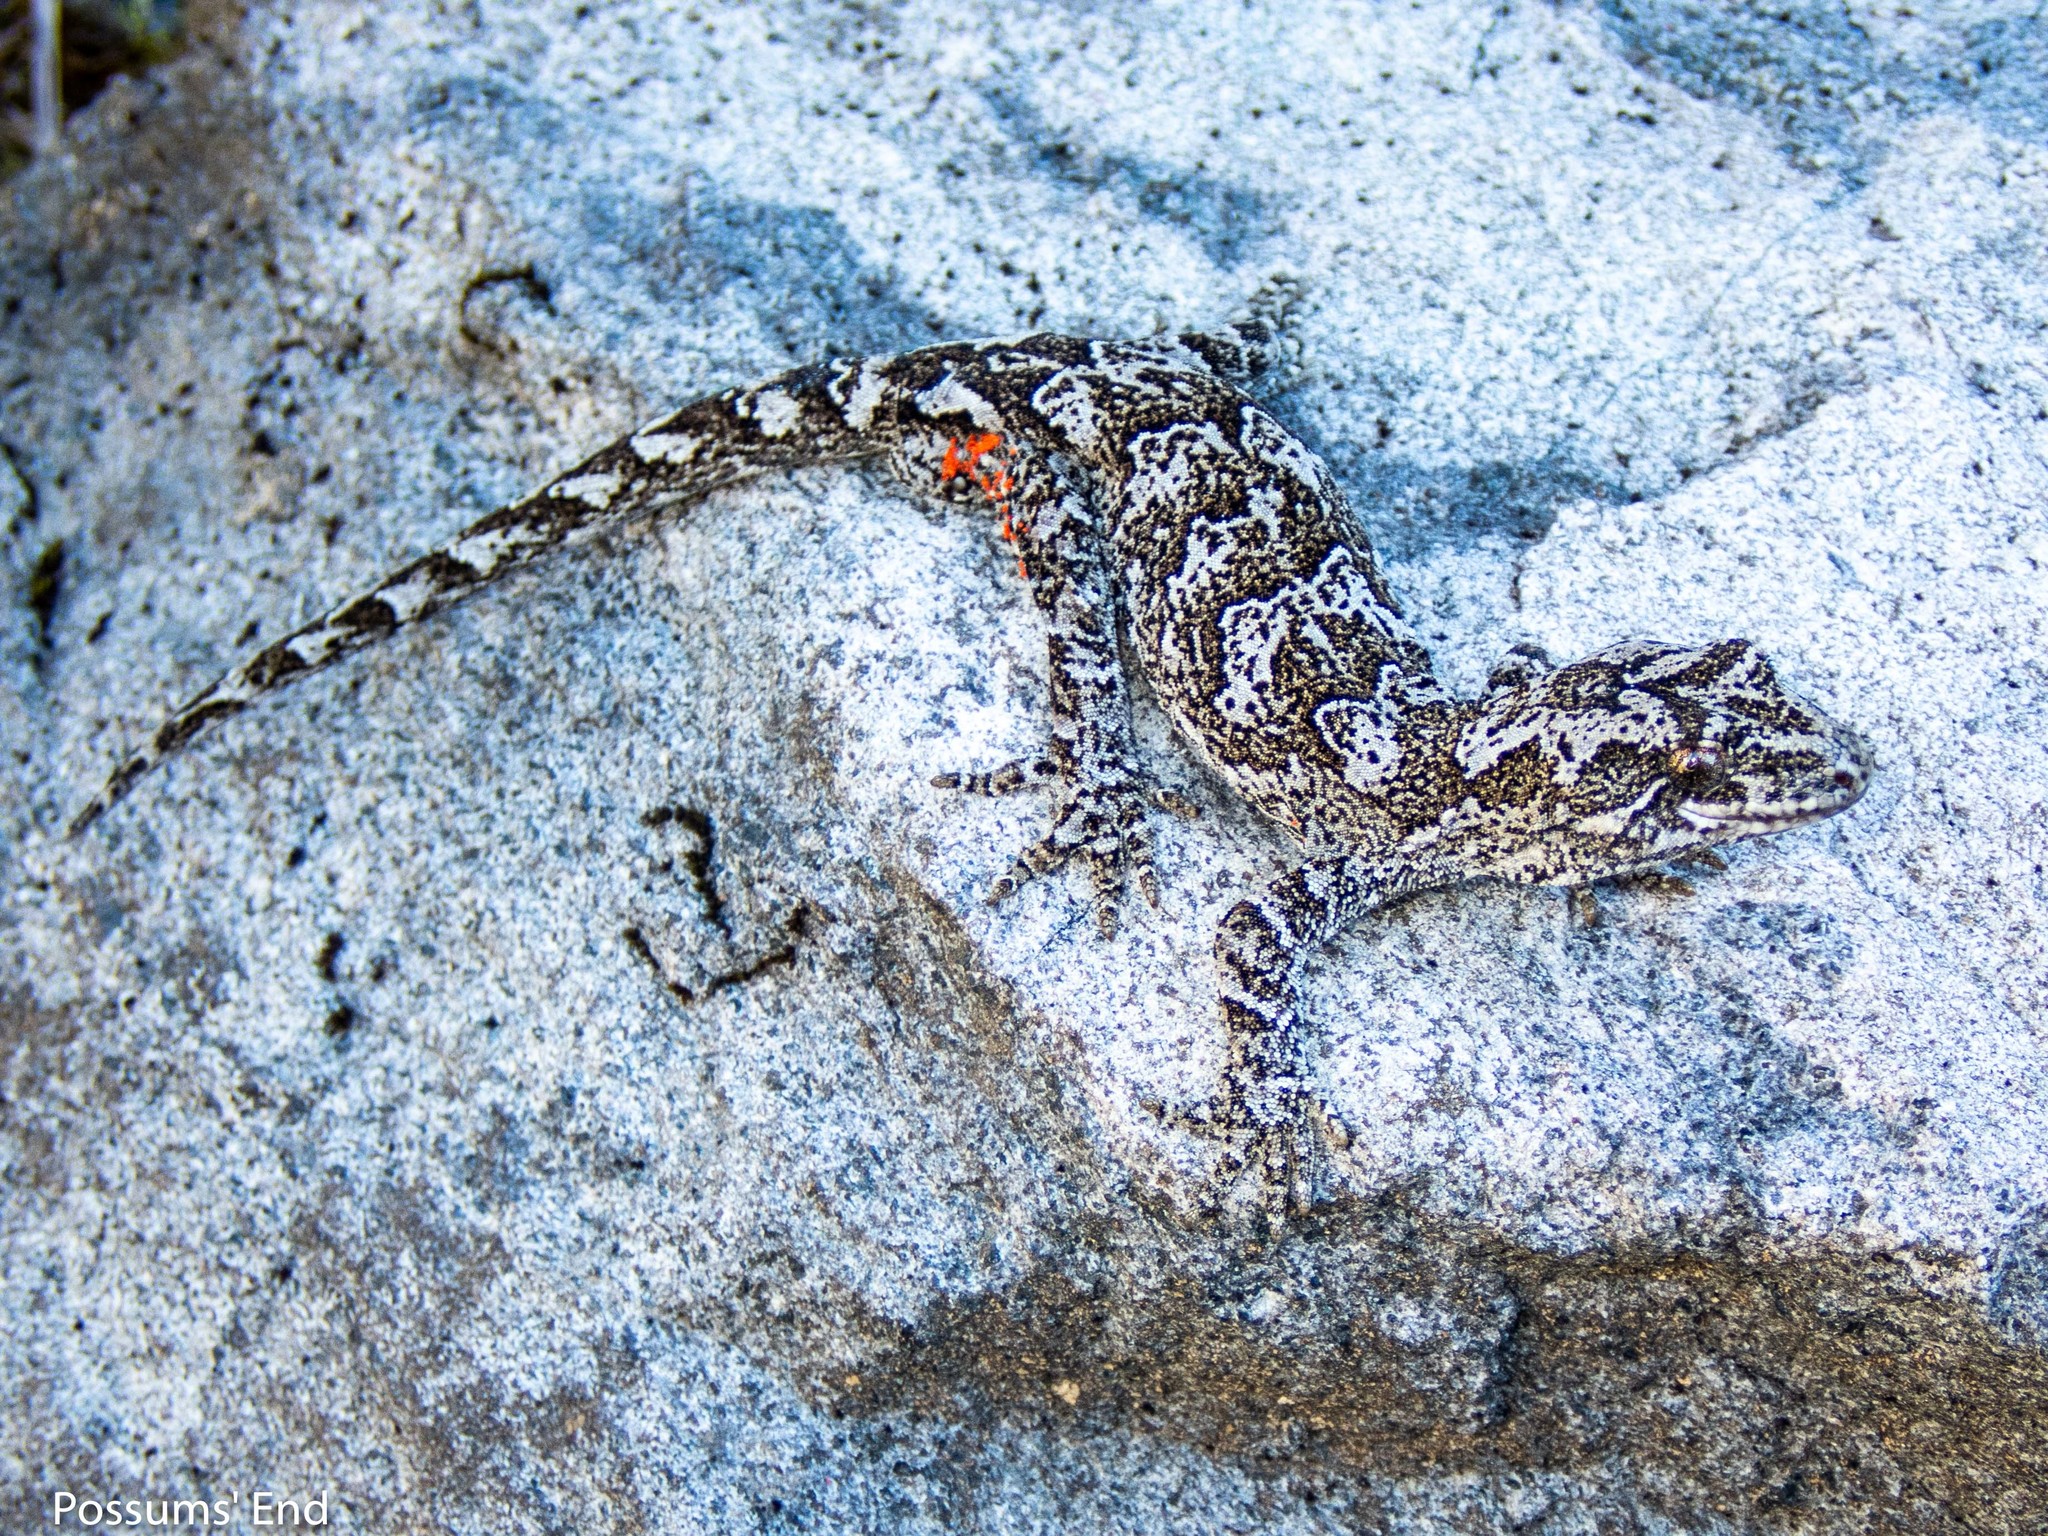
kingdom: Animalia
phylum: Chordata
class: Squamata
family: Diplodactylidae
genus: Mokopirirakau
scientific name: Mokopirirakau
